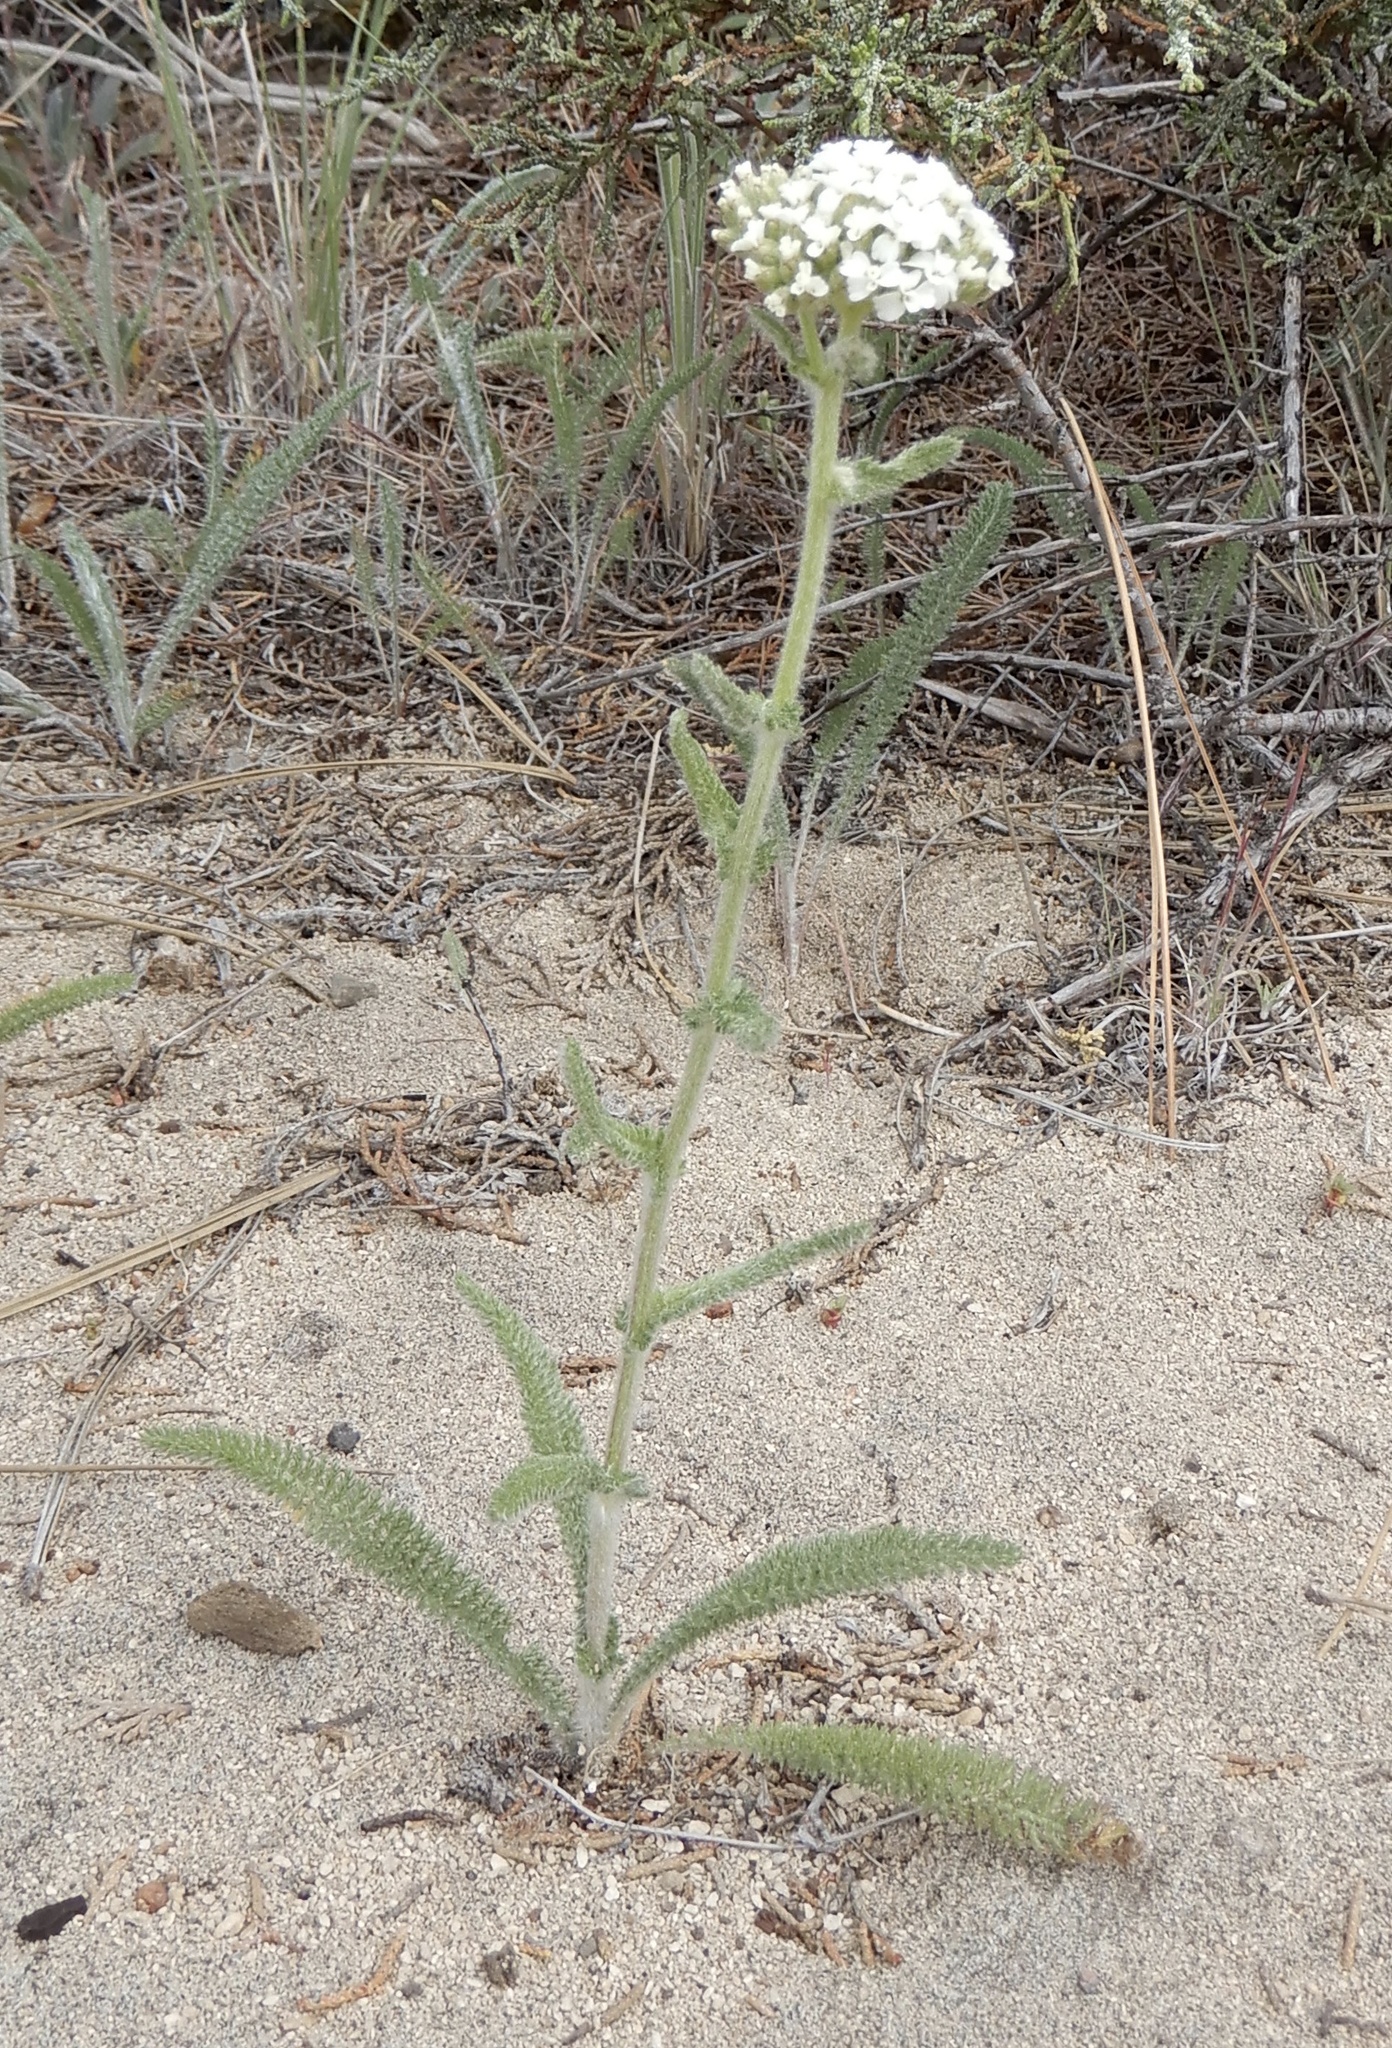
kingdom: Plantae
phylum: Tracheophyta
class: Magnoliopsida
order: Asterales
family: Asteraceae
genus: Achillea
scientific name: Achillea millefolium
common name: Yarrow
